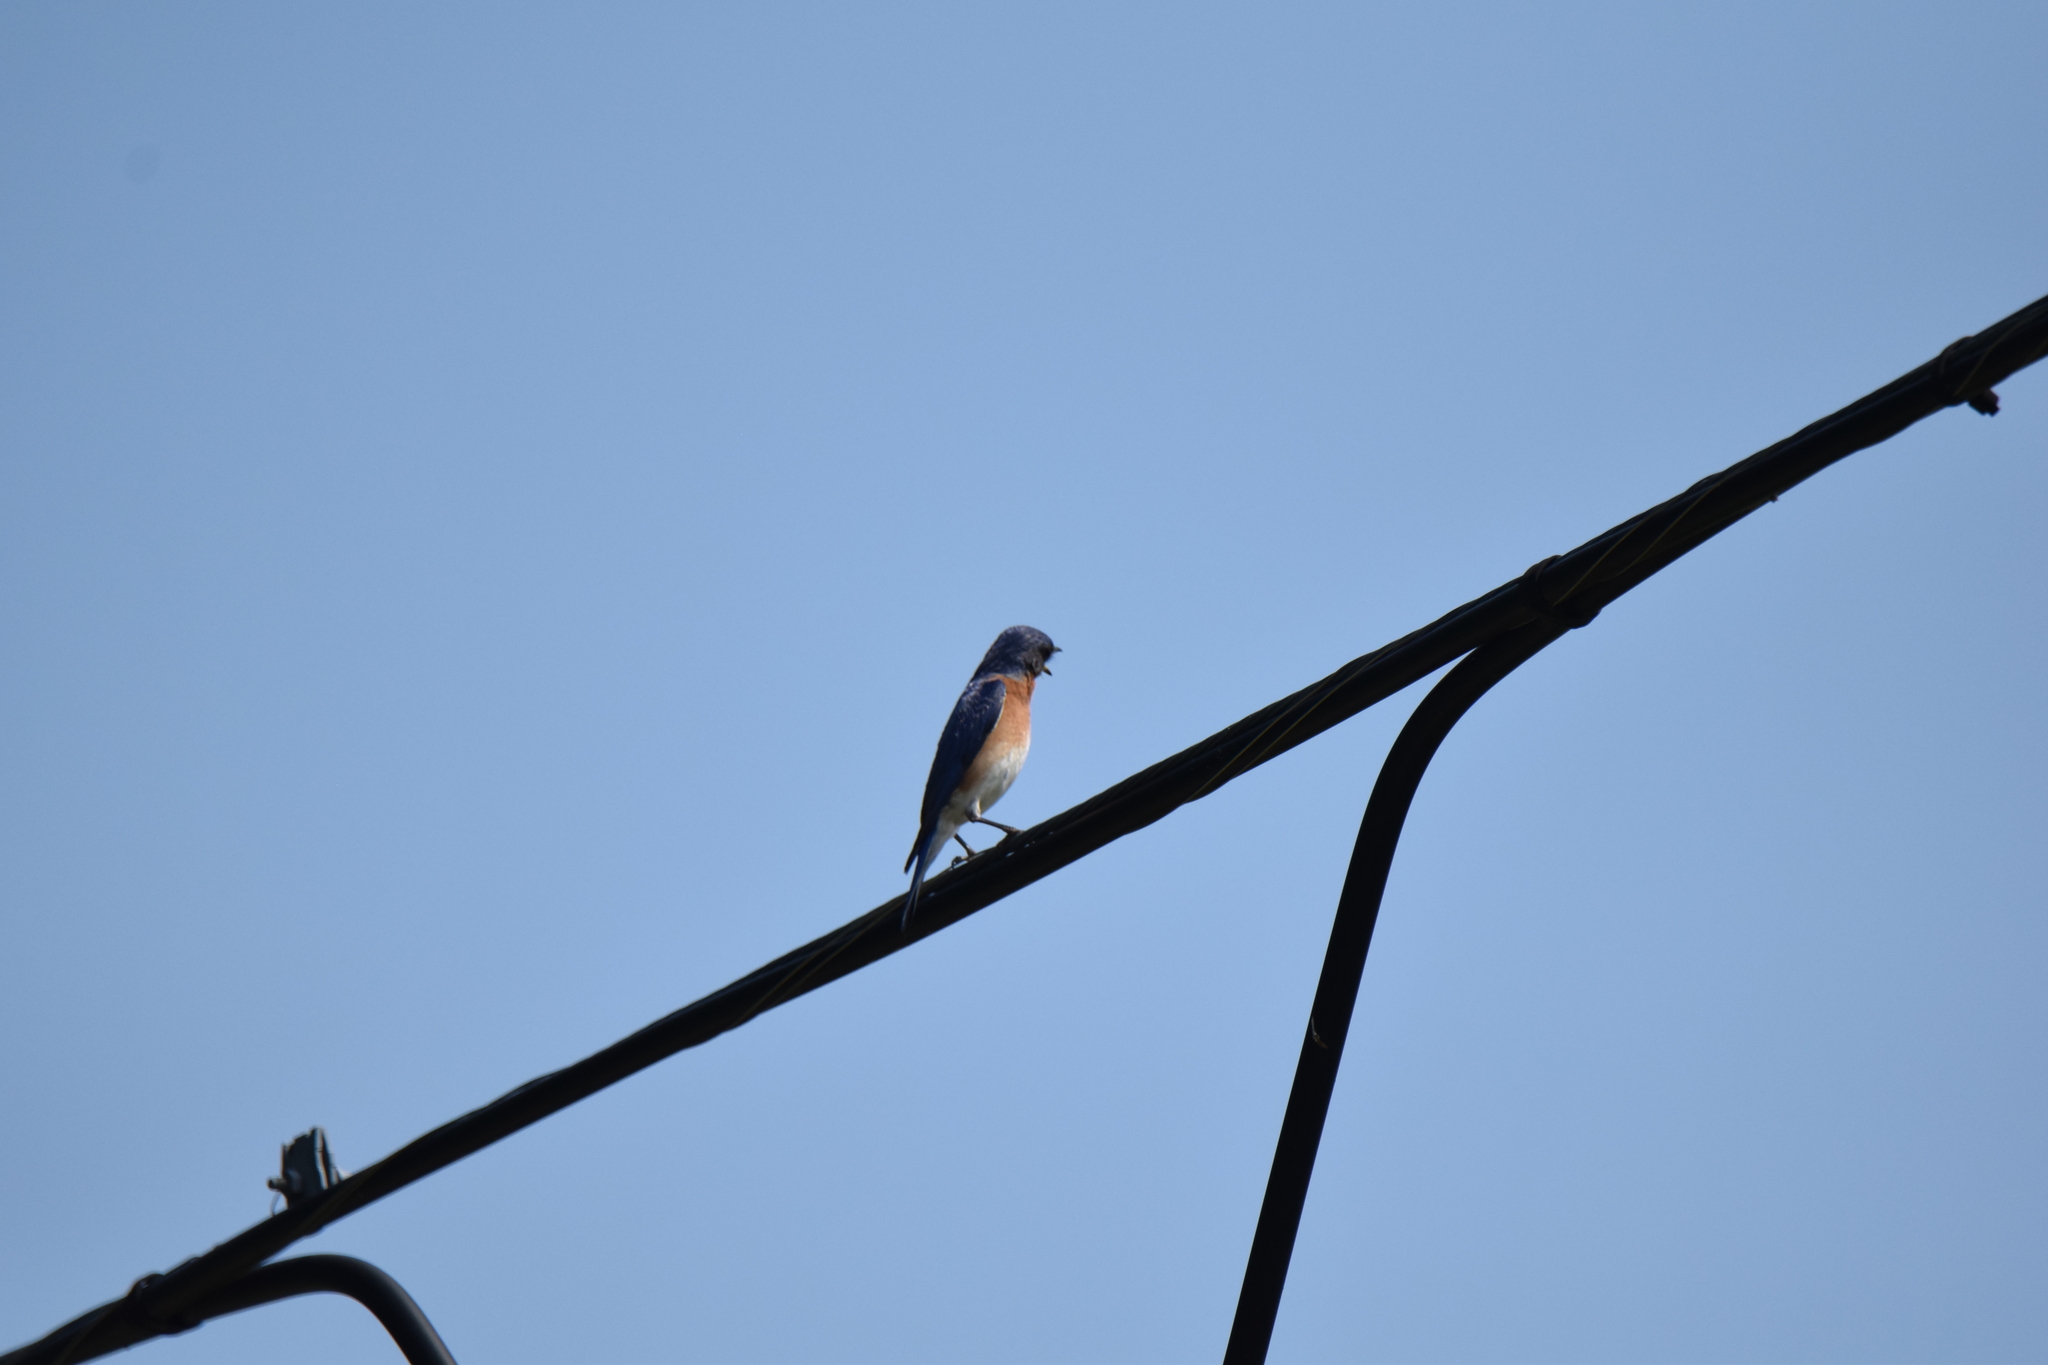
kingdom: Animalia
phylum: Chordata
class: Aves
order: Passeriformes
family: Turdidae
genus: Sialia
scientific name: Sialia sialis
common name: Eastern bluebird
